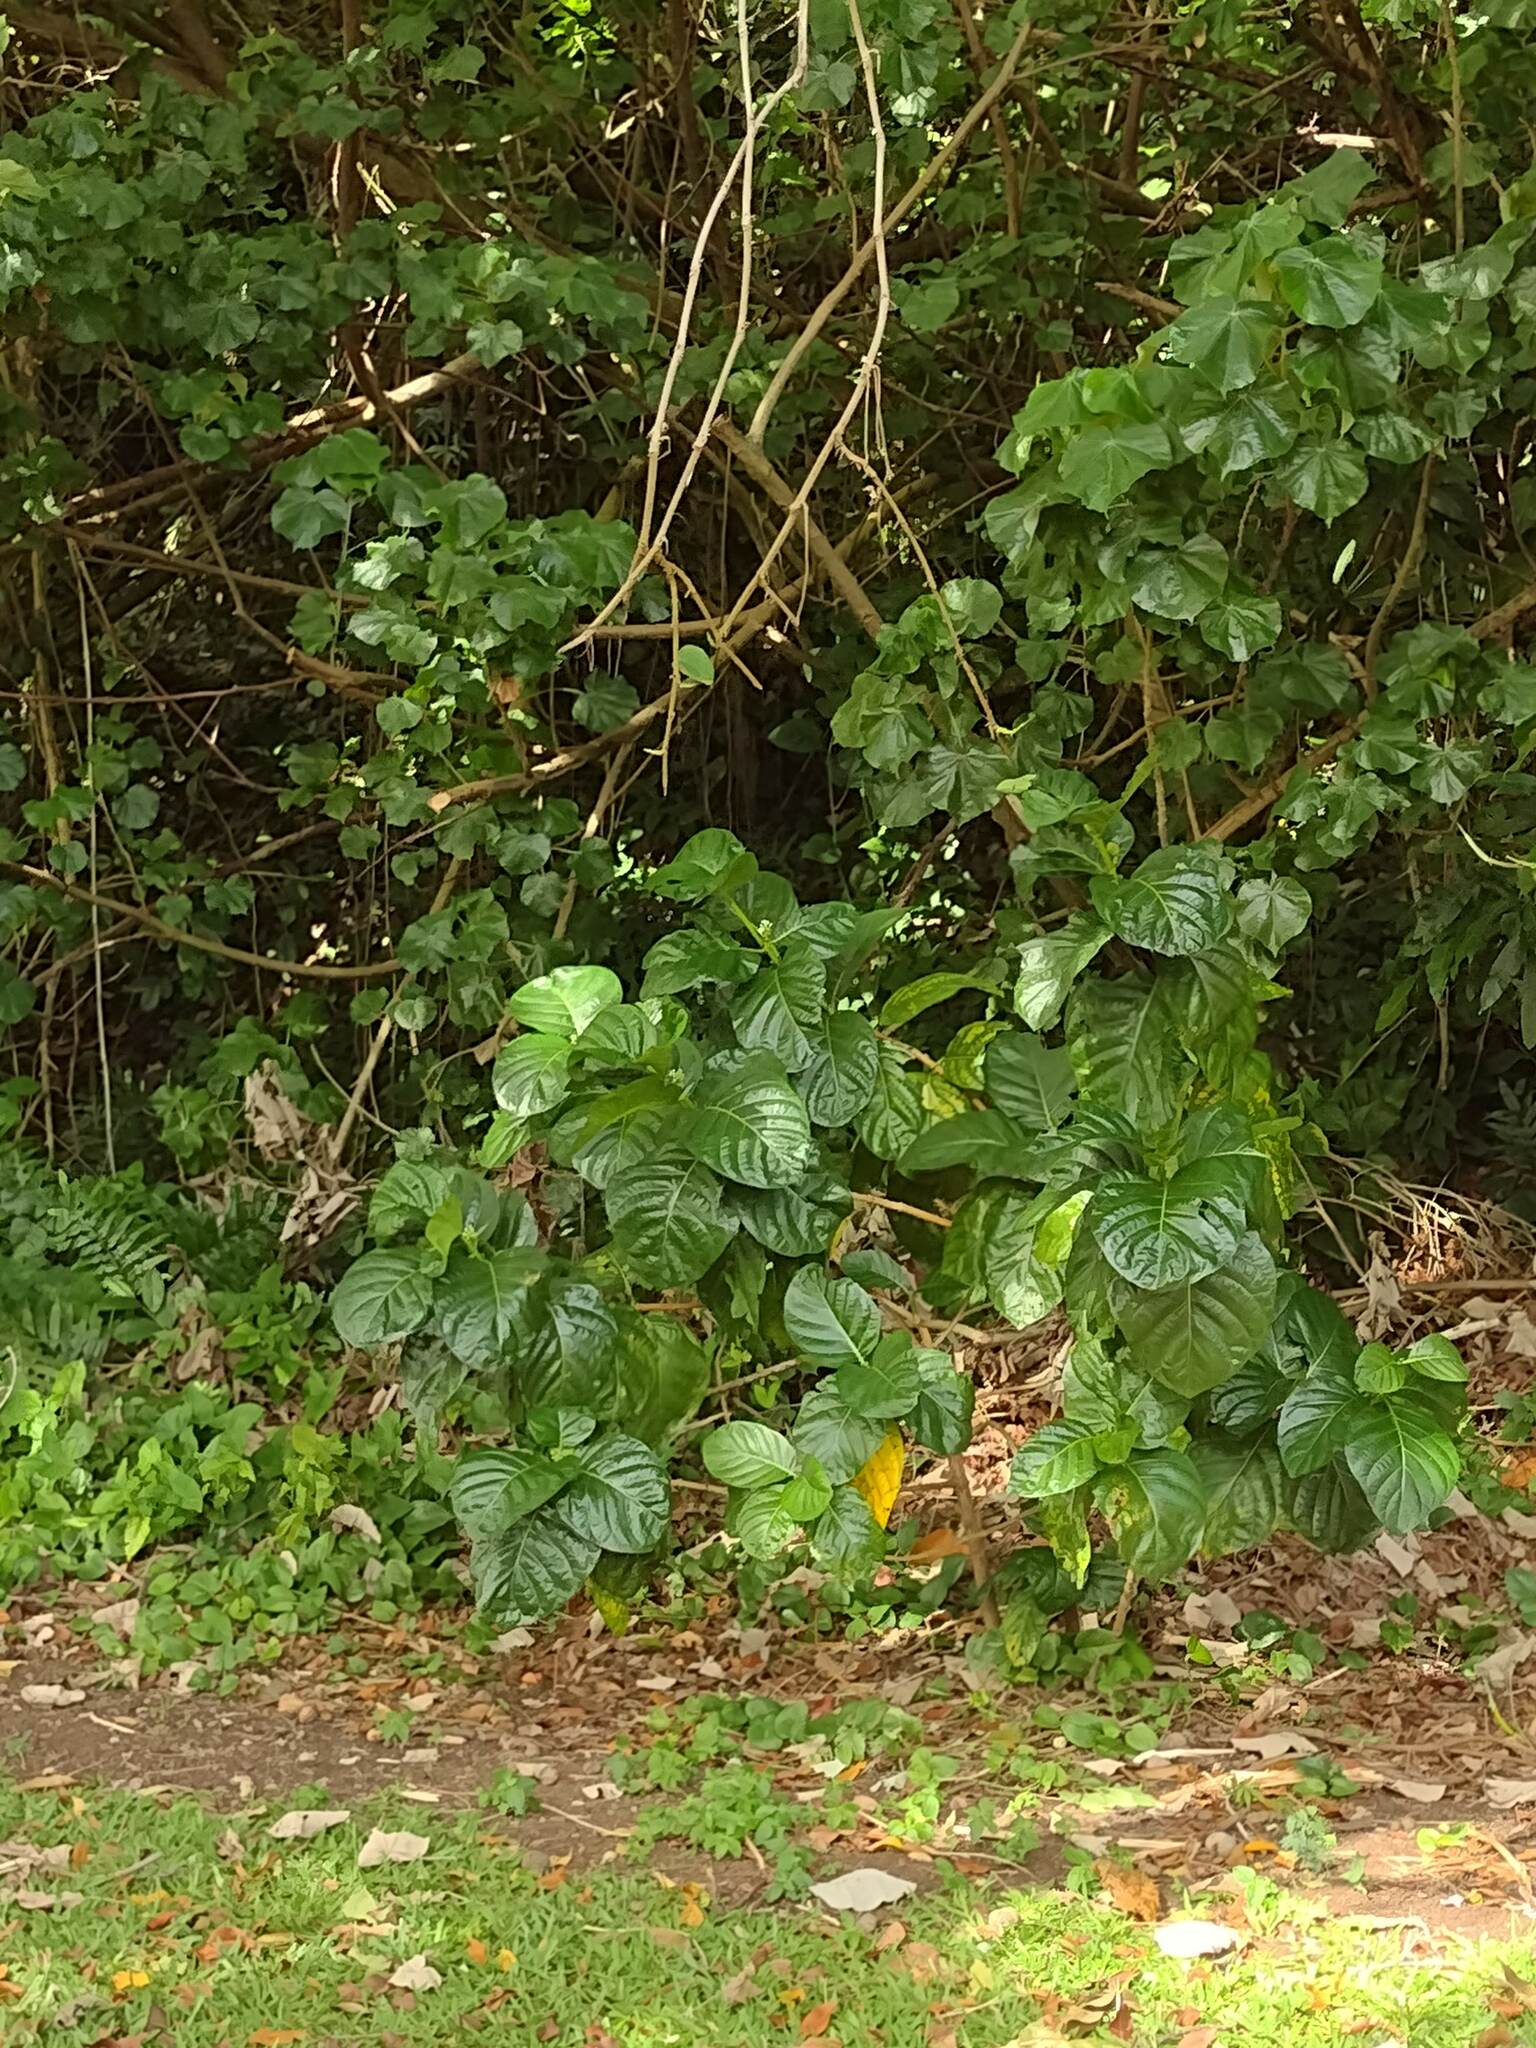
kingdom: Plantae
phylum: Tracheophyta
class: Magnoliopsida
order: Gentianales
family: Rubiaceae
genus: Morinda
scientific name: Morinda citrifolia
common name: Indian-mulberry
